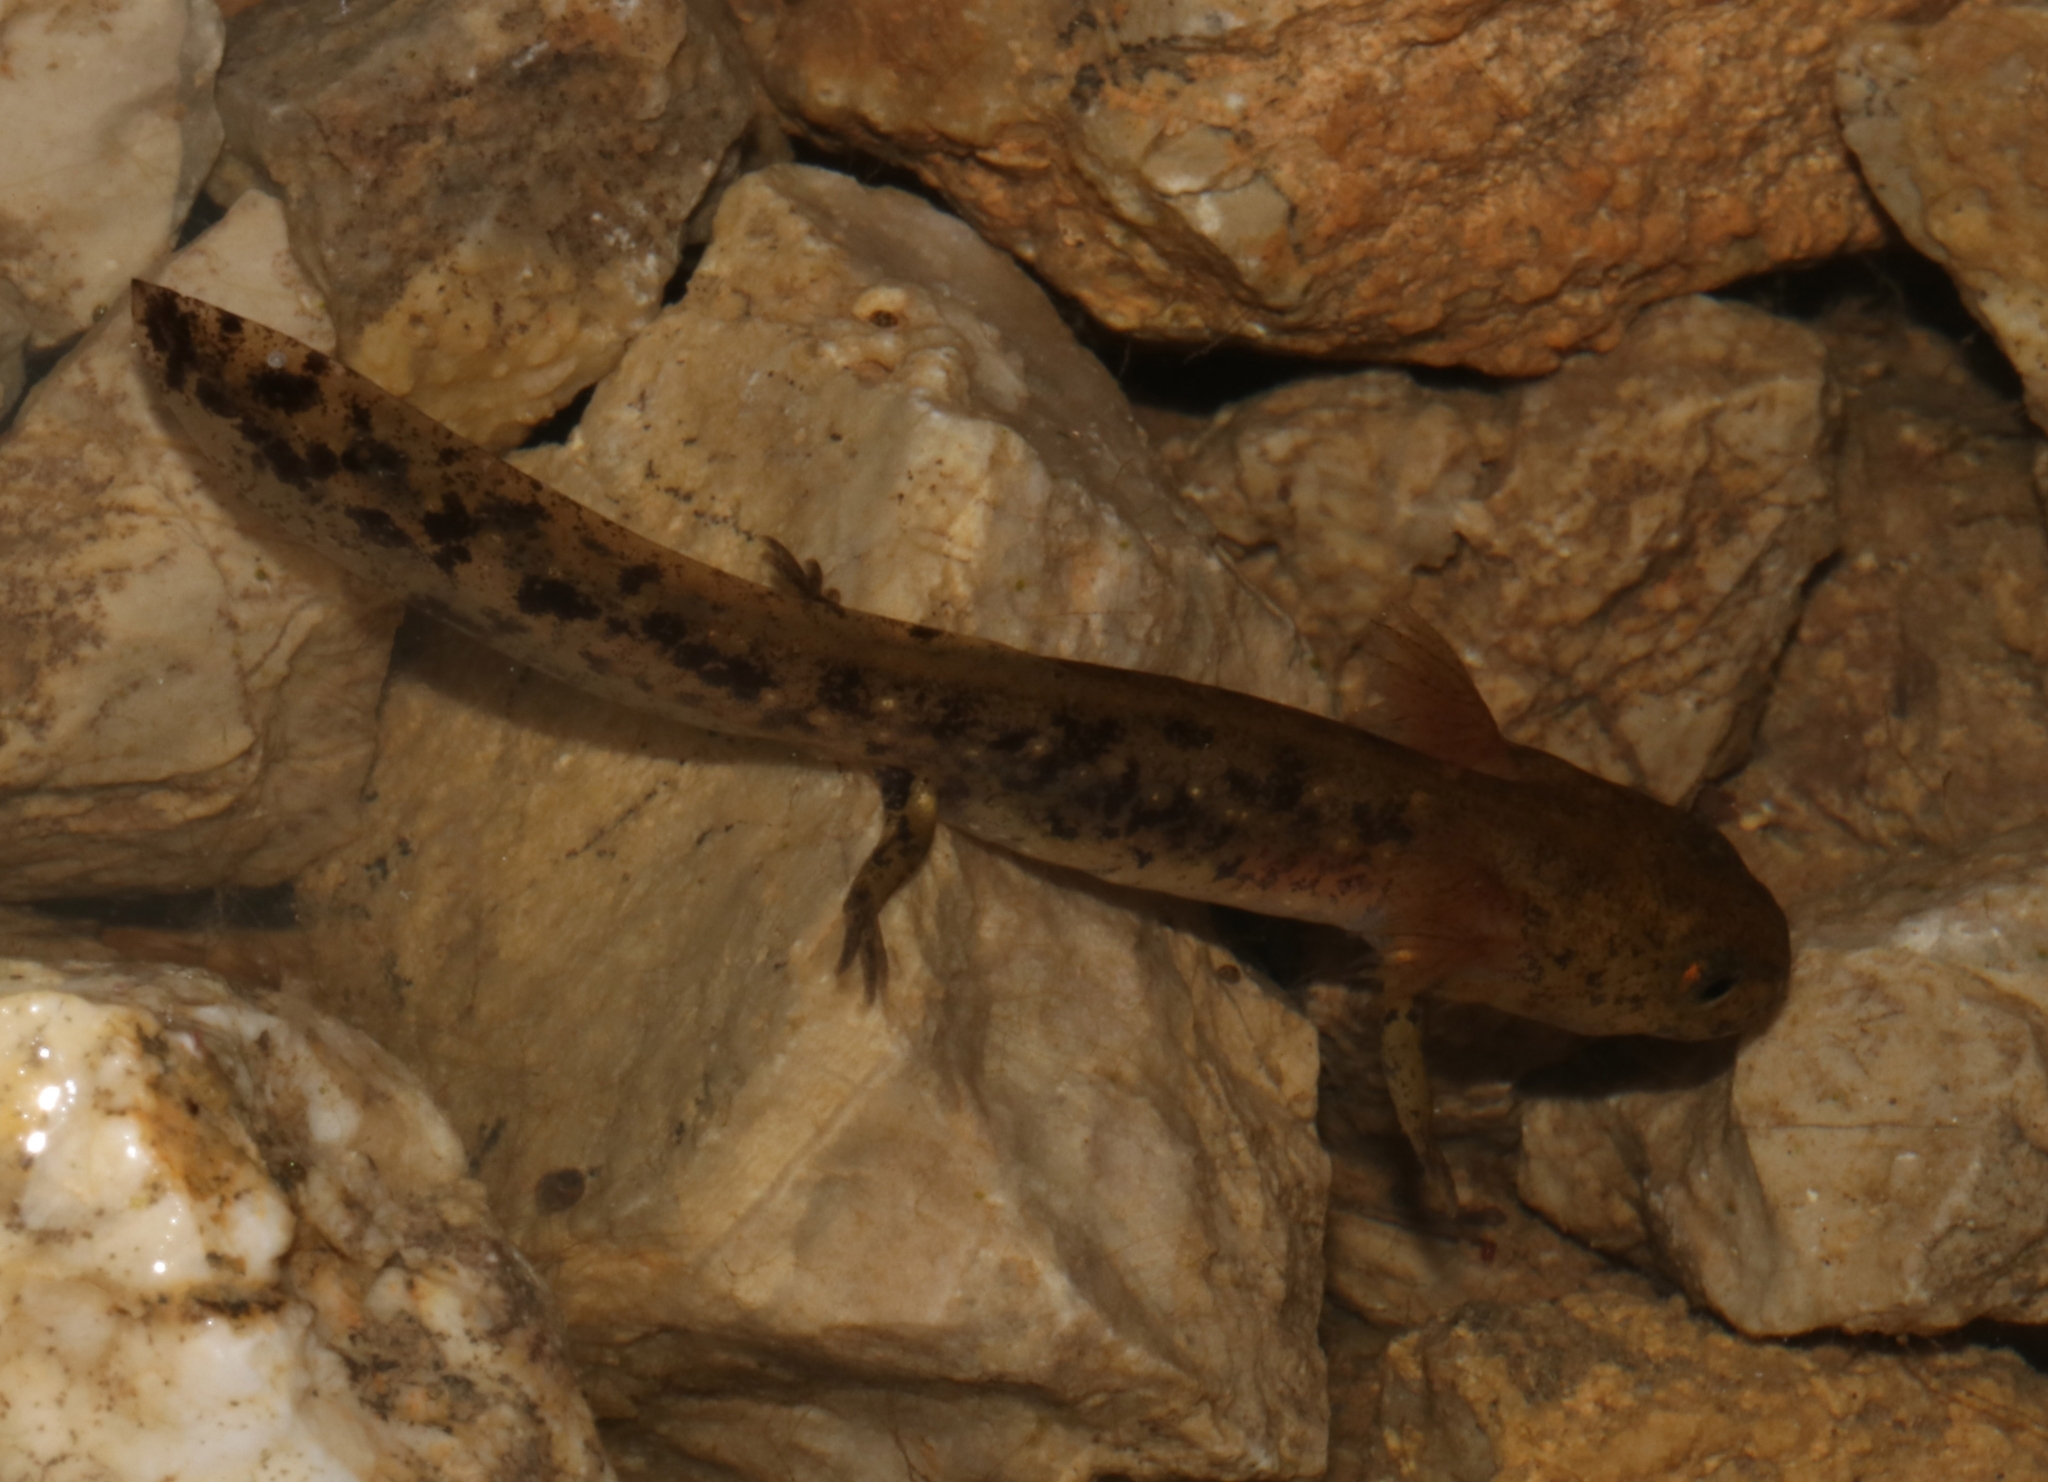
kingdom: Animalia
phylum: Chordata
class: Amphibia
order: Caudata
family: Salamandridae
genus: Salamandra
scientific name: Salamandra salamandra
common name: Fire salamander
